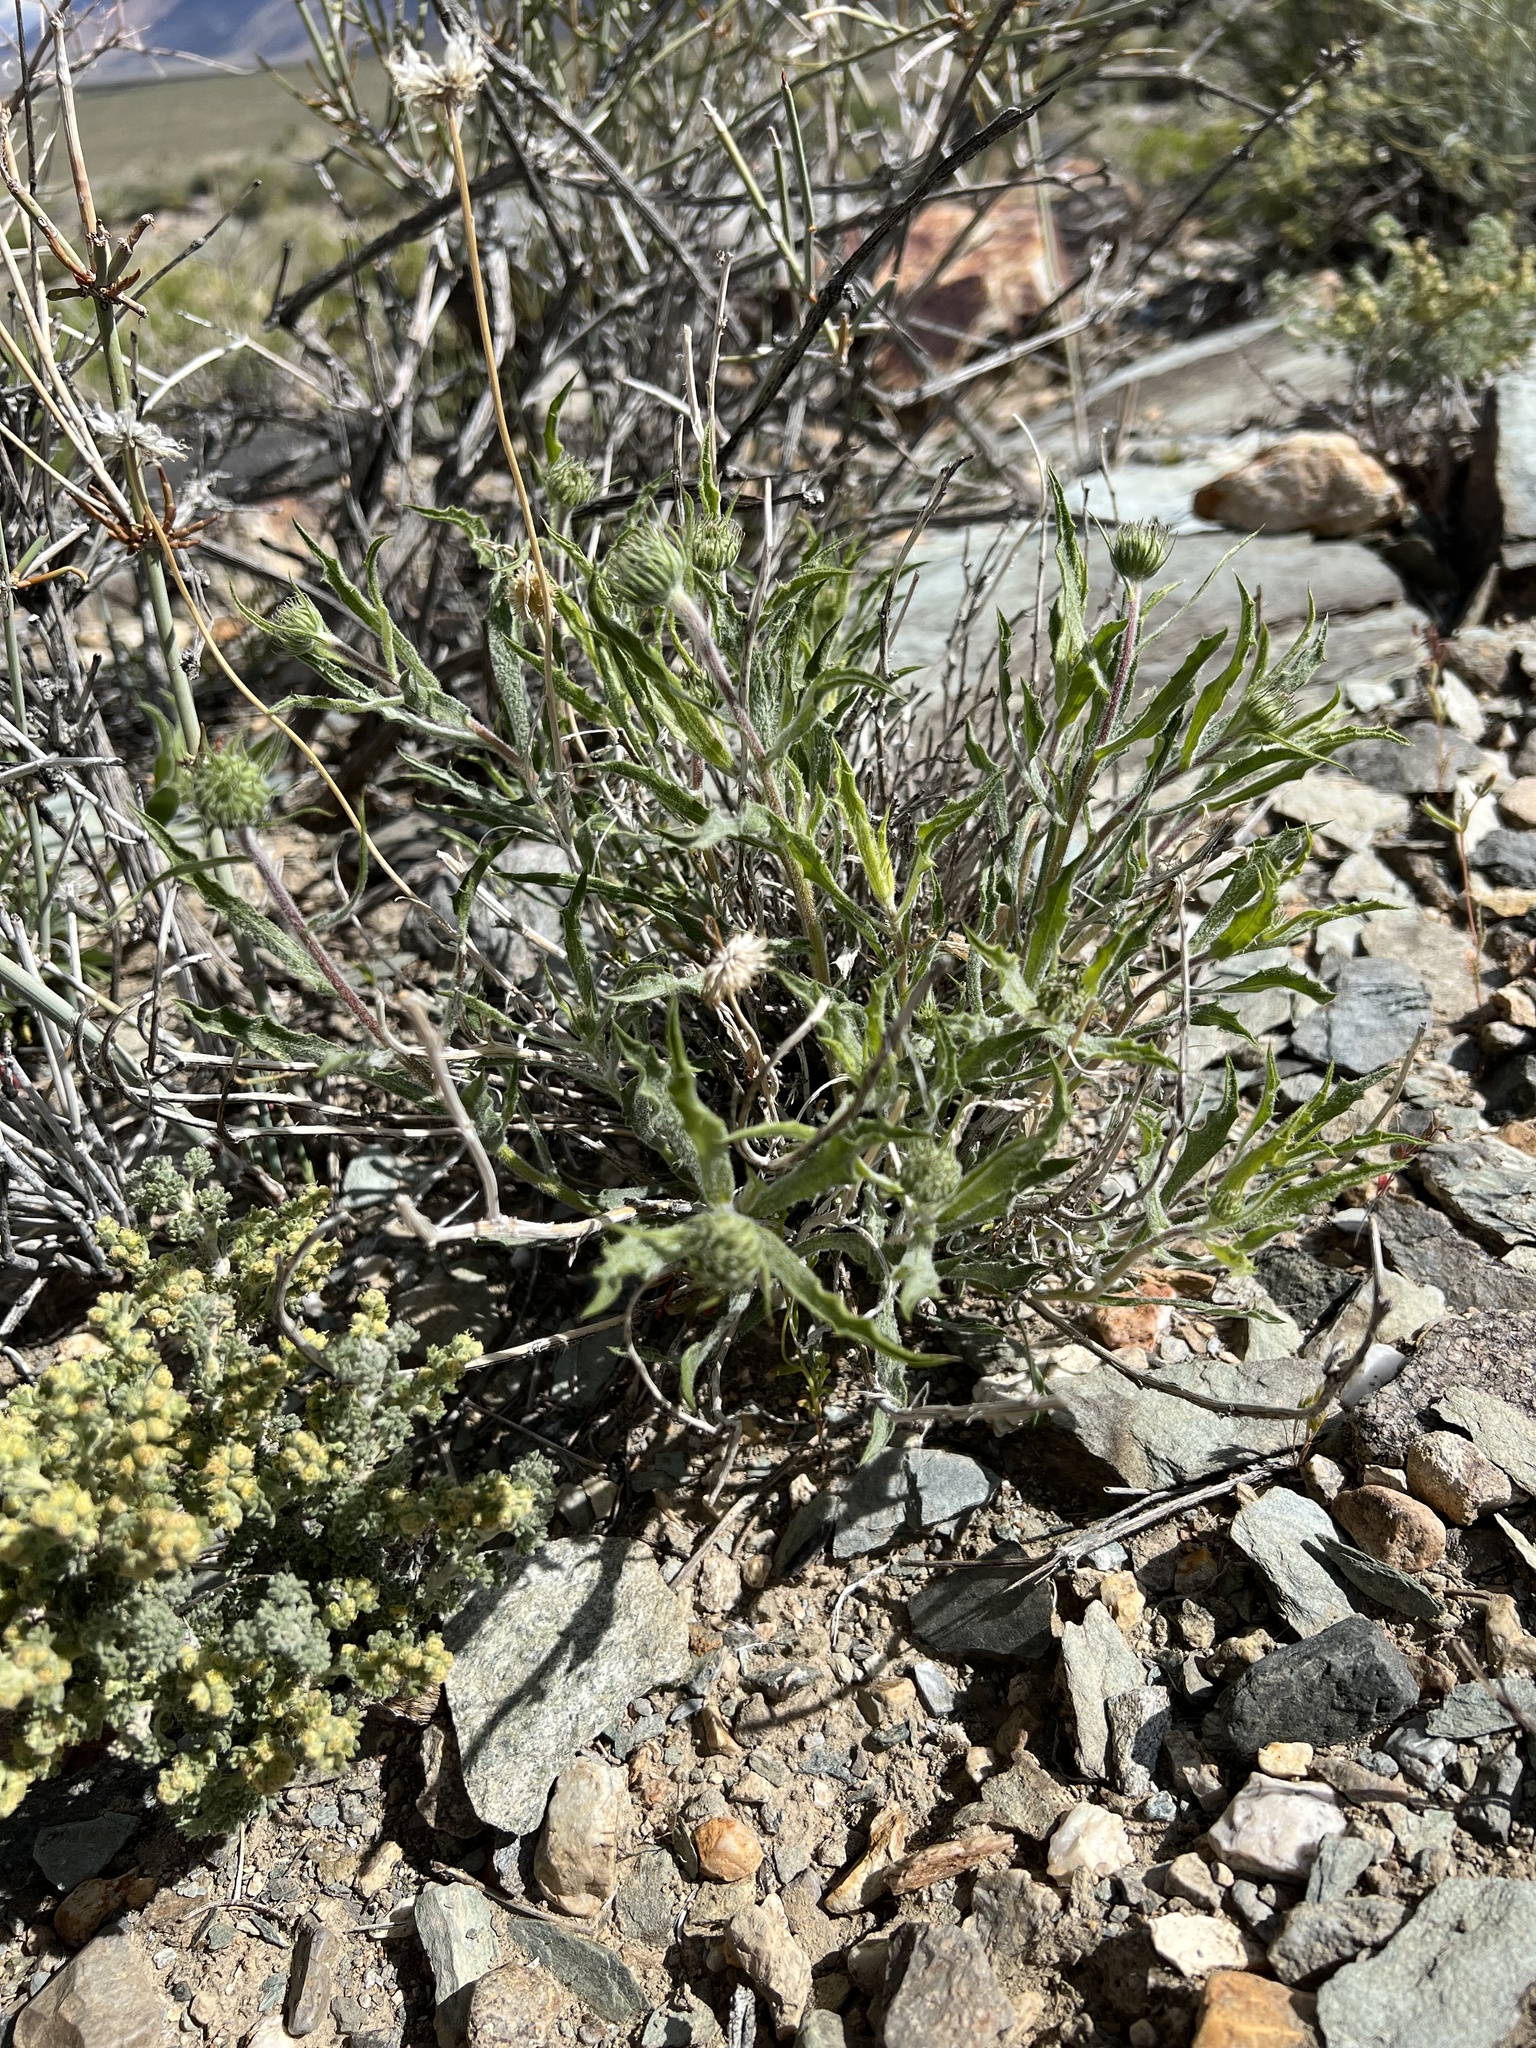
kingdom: Plantae
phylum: Tracheophyta
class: Magnoliopsida
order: Asterales
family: Asteraceae
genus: Xylorhiza
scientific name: Xylorhiza tortifolia
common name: Hurt-leaf woody-aster
